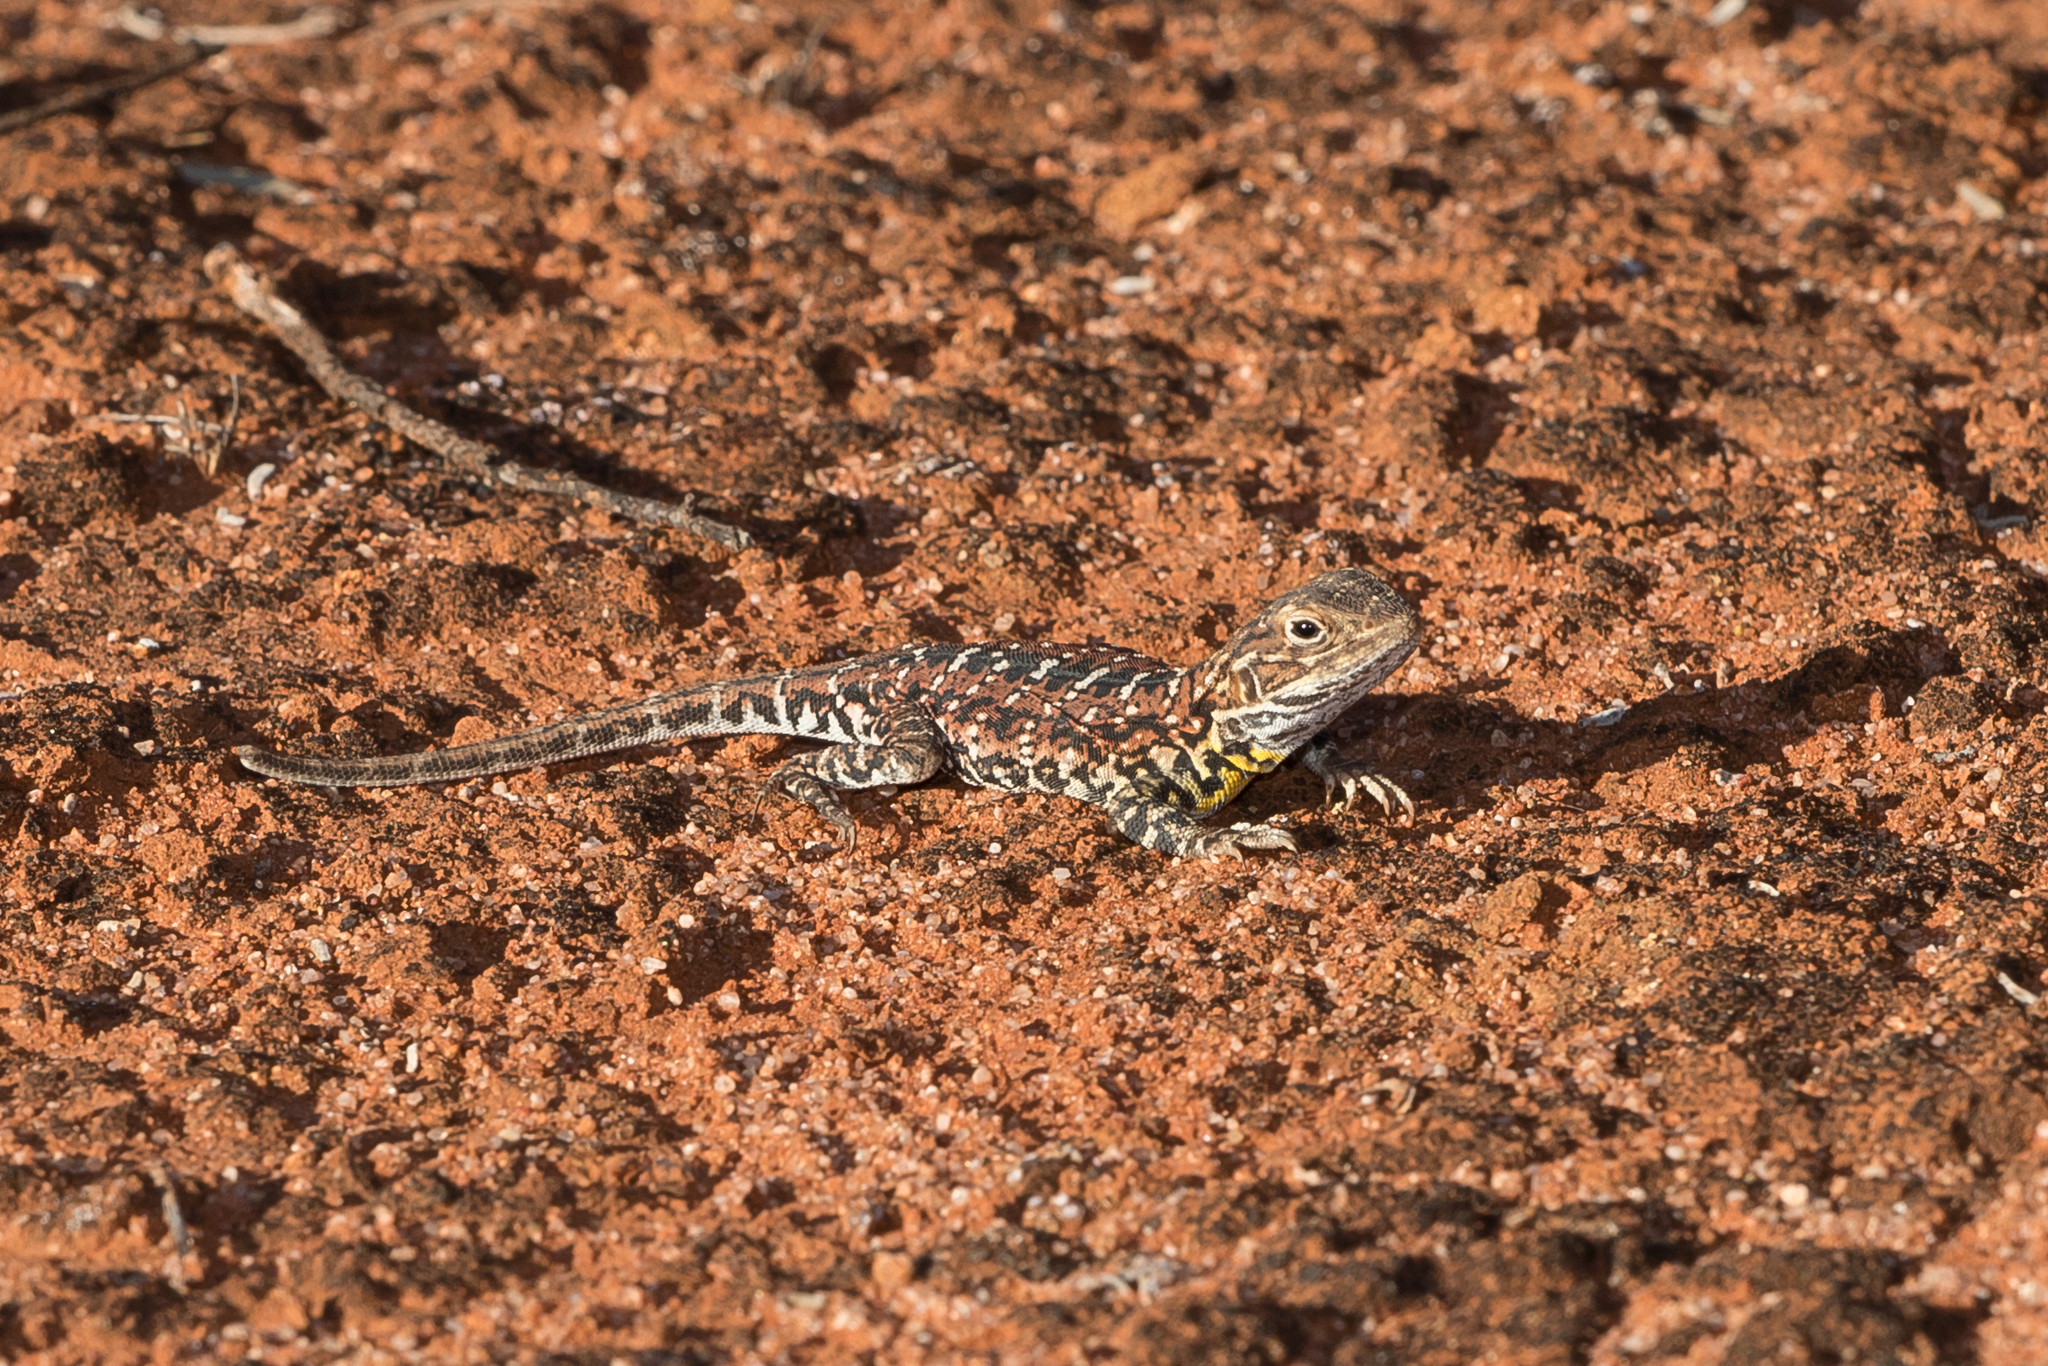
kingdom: Animalia
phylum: Chordata
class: Squamata
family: Agamidae
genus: Ctenophorus
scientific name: Ctenophorus pictus
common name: Painted dragon
